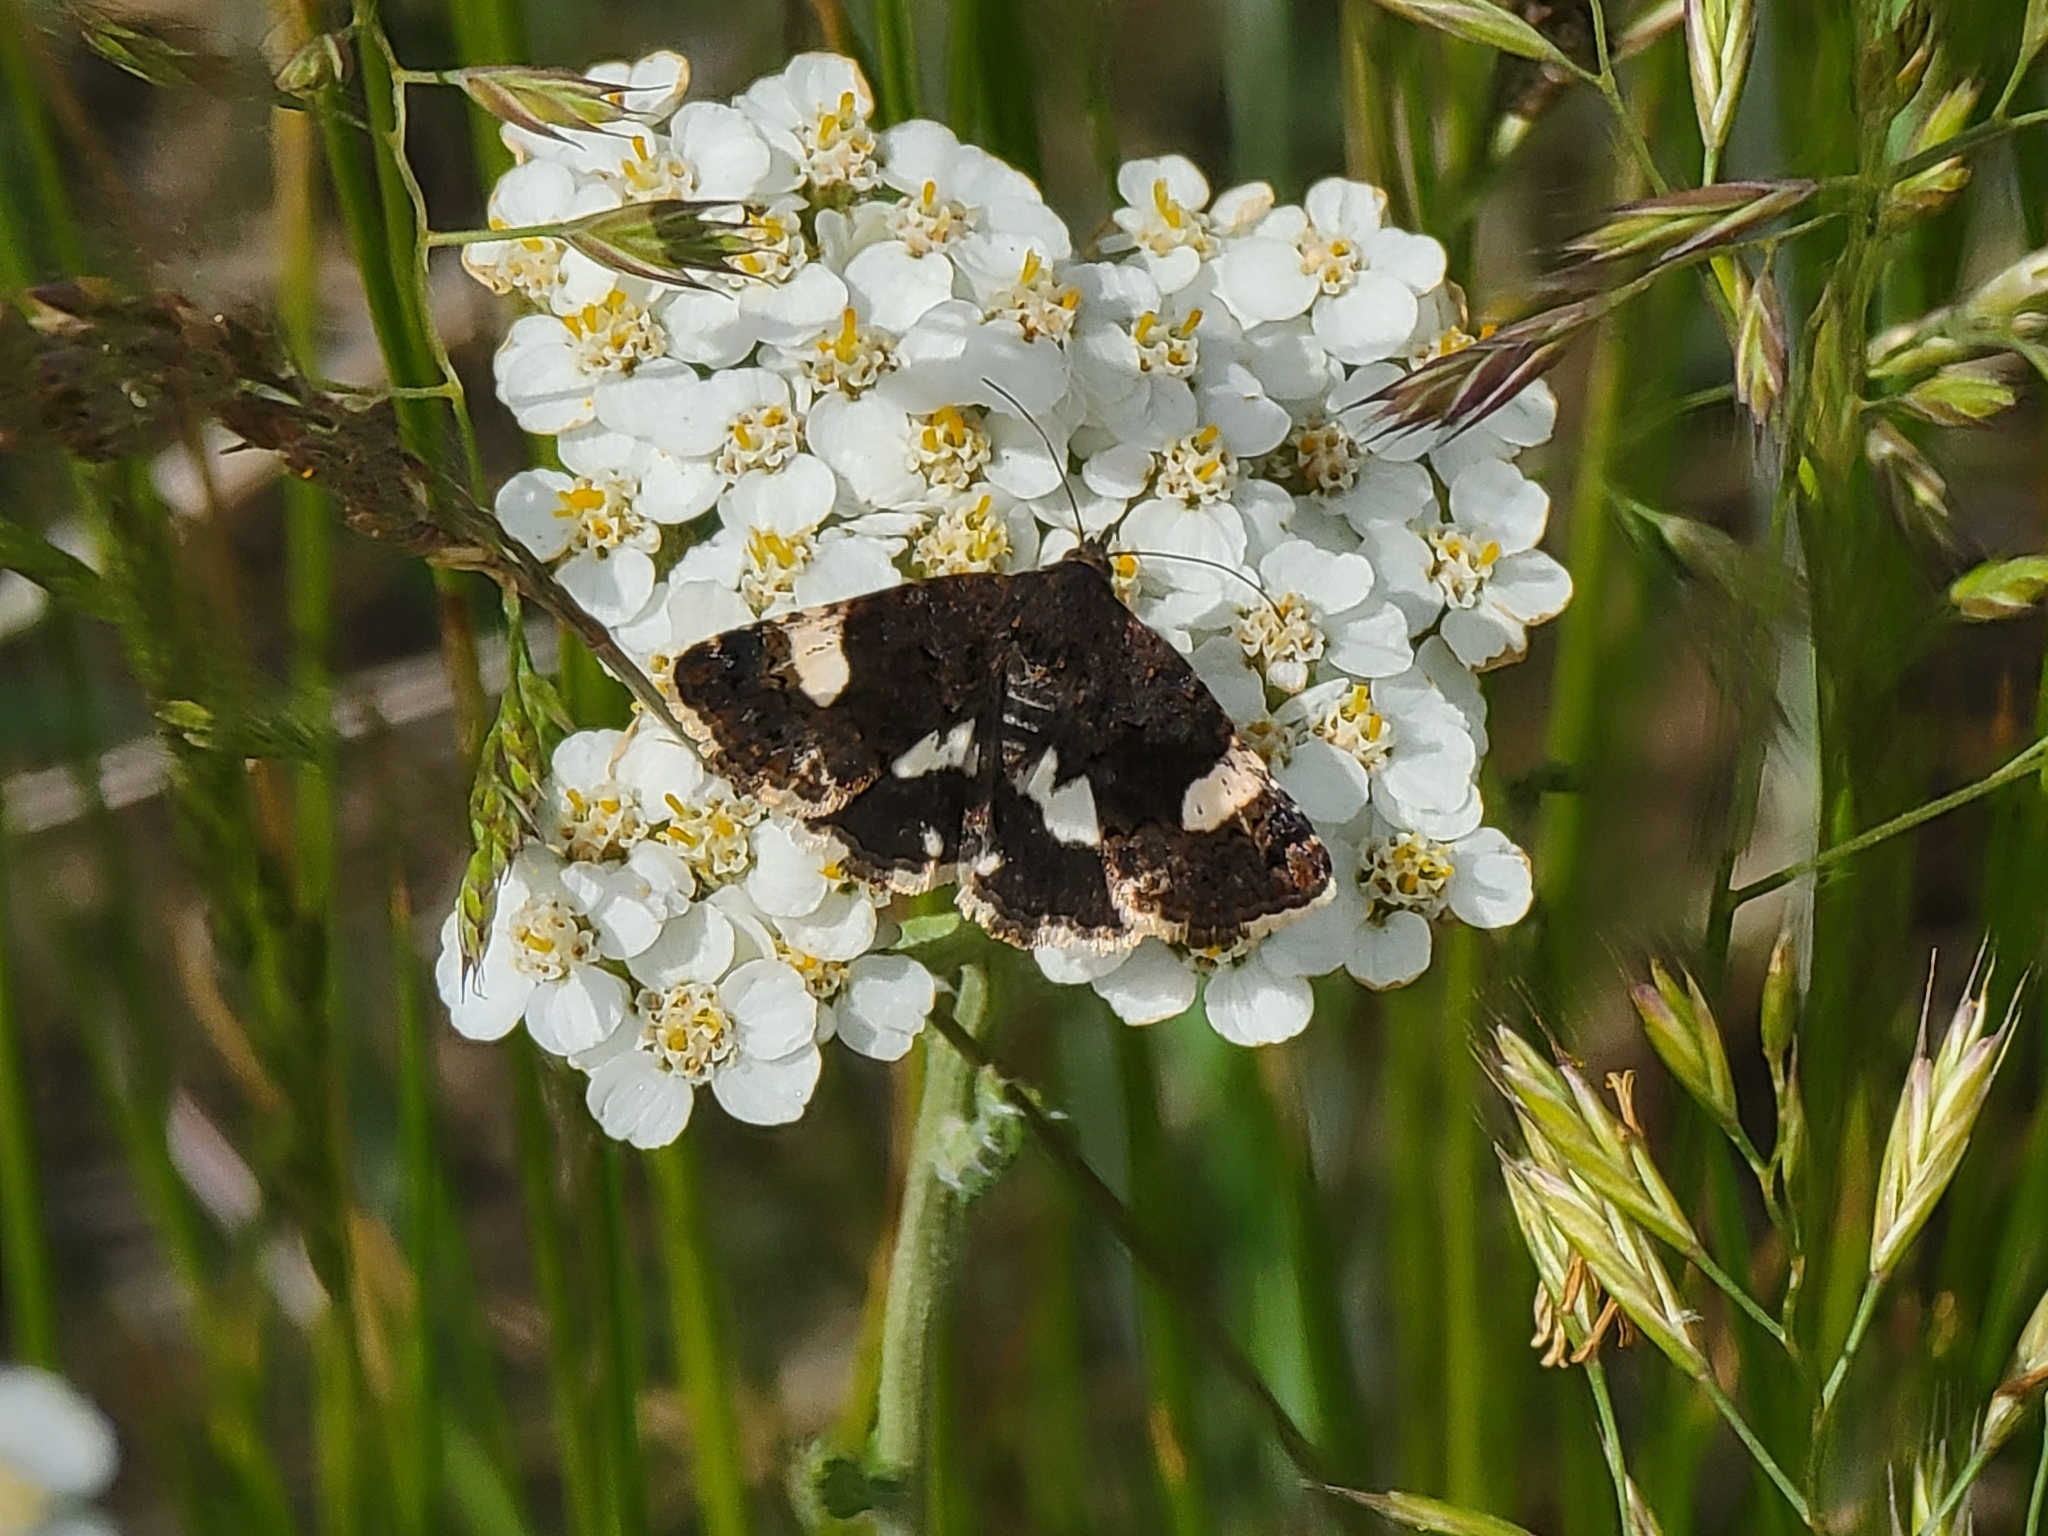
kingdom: Animalia
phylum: Arthropoda
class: Insecta
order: Lepidoptera
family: Erebidae
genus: Tyta
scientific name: Tyta luctuosa
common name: Four-spotted
